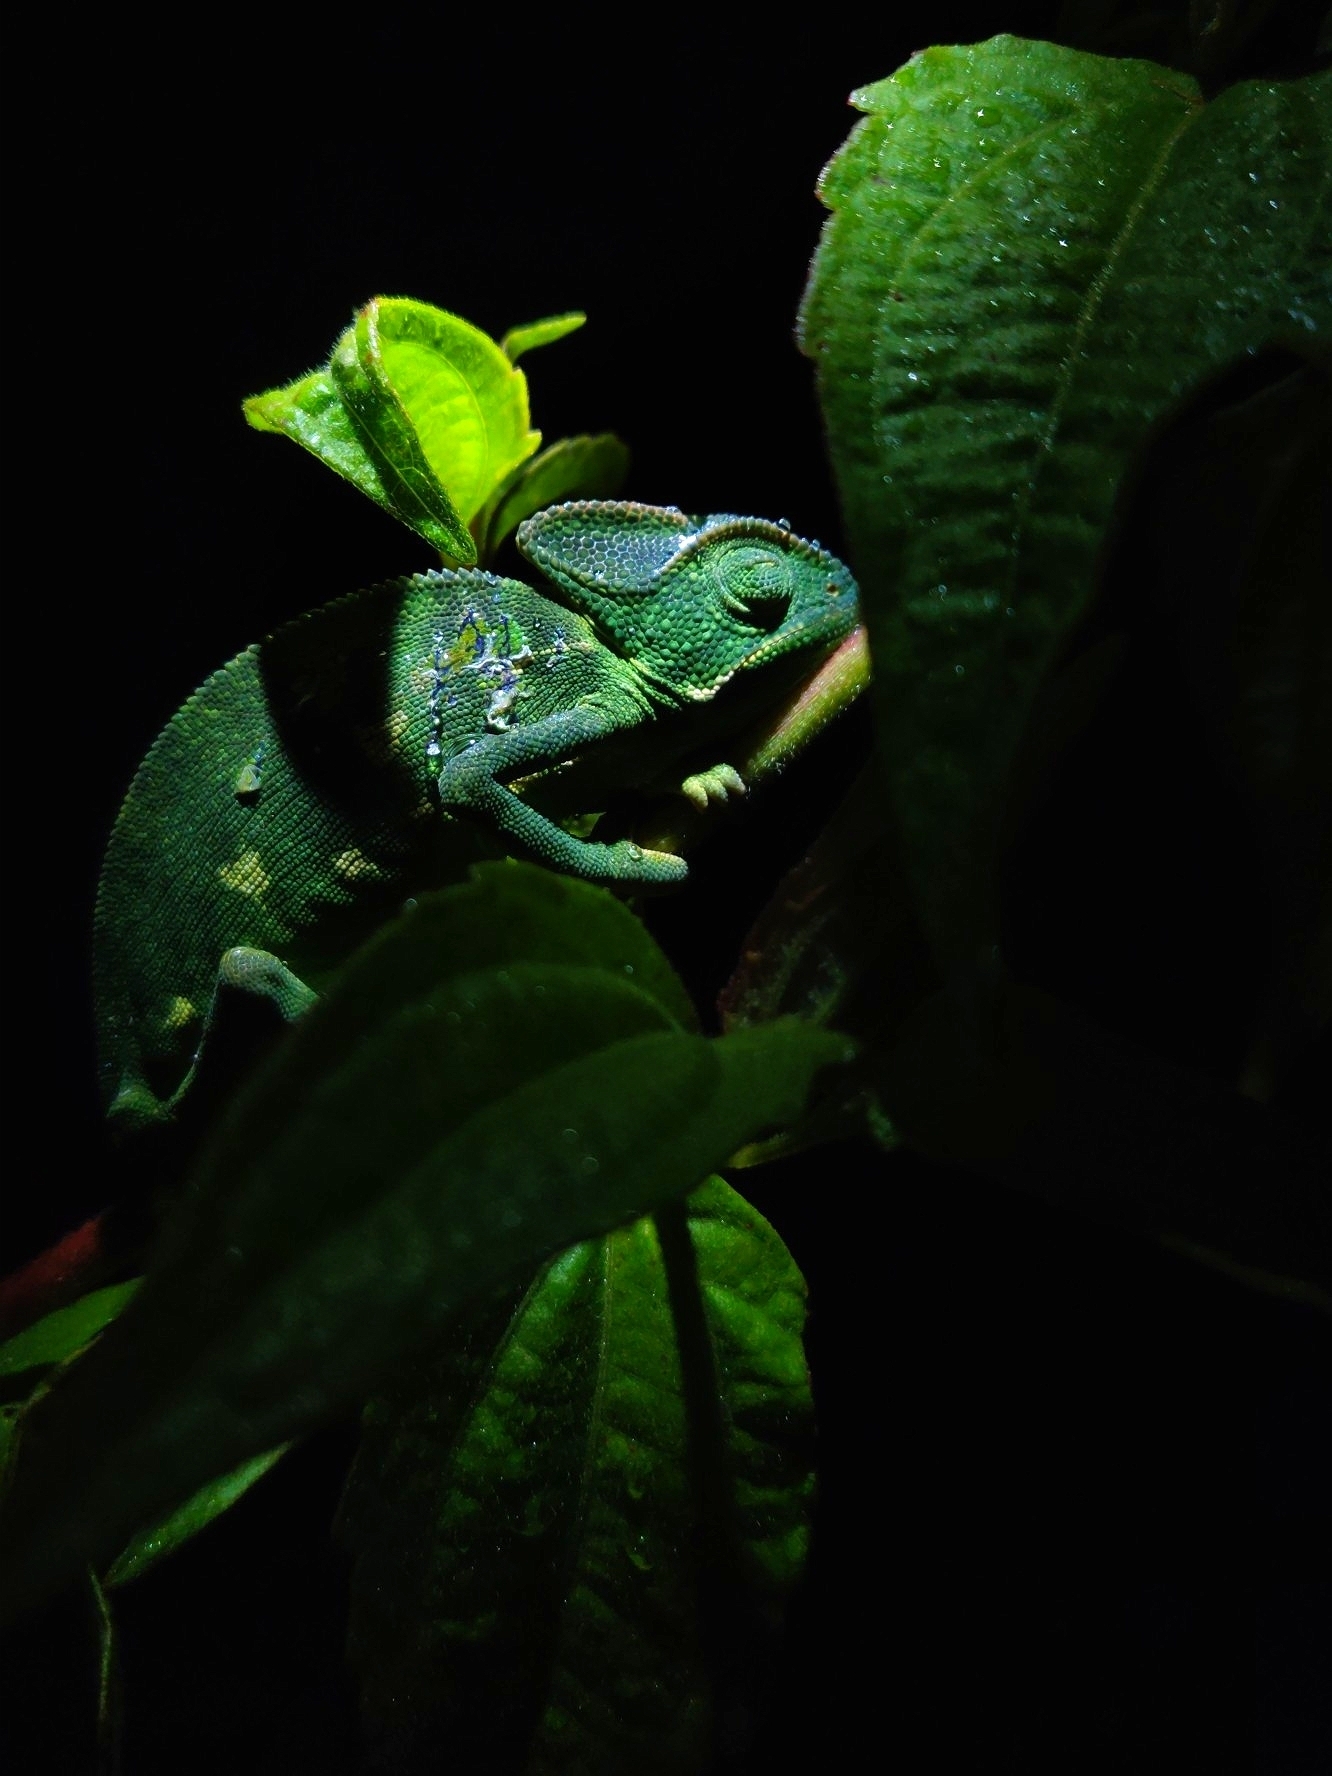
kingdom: Animalia
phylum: Chordata
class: Squamata
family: Chamaeleonidae
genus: Chamaeleo
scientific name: Chamaeleo zeylanicus
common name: Indian chameleon
